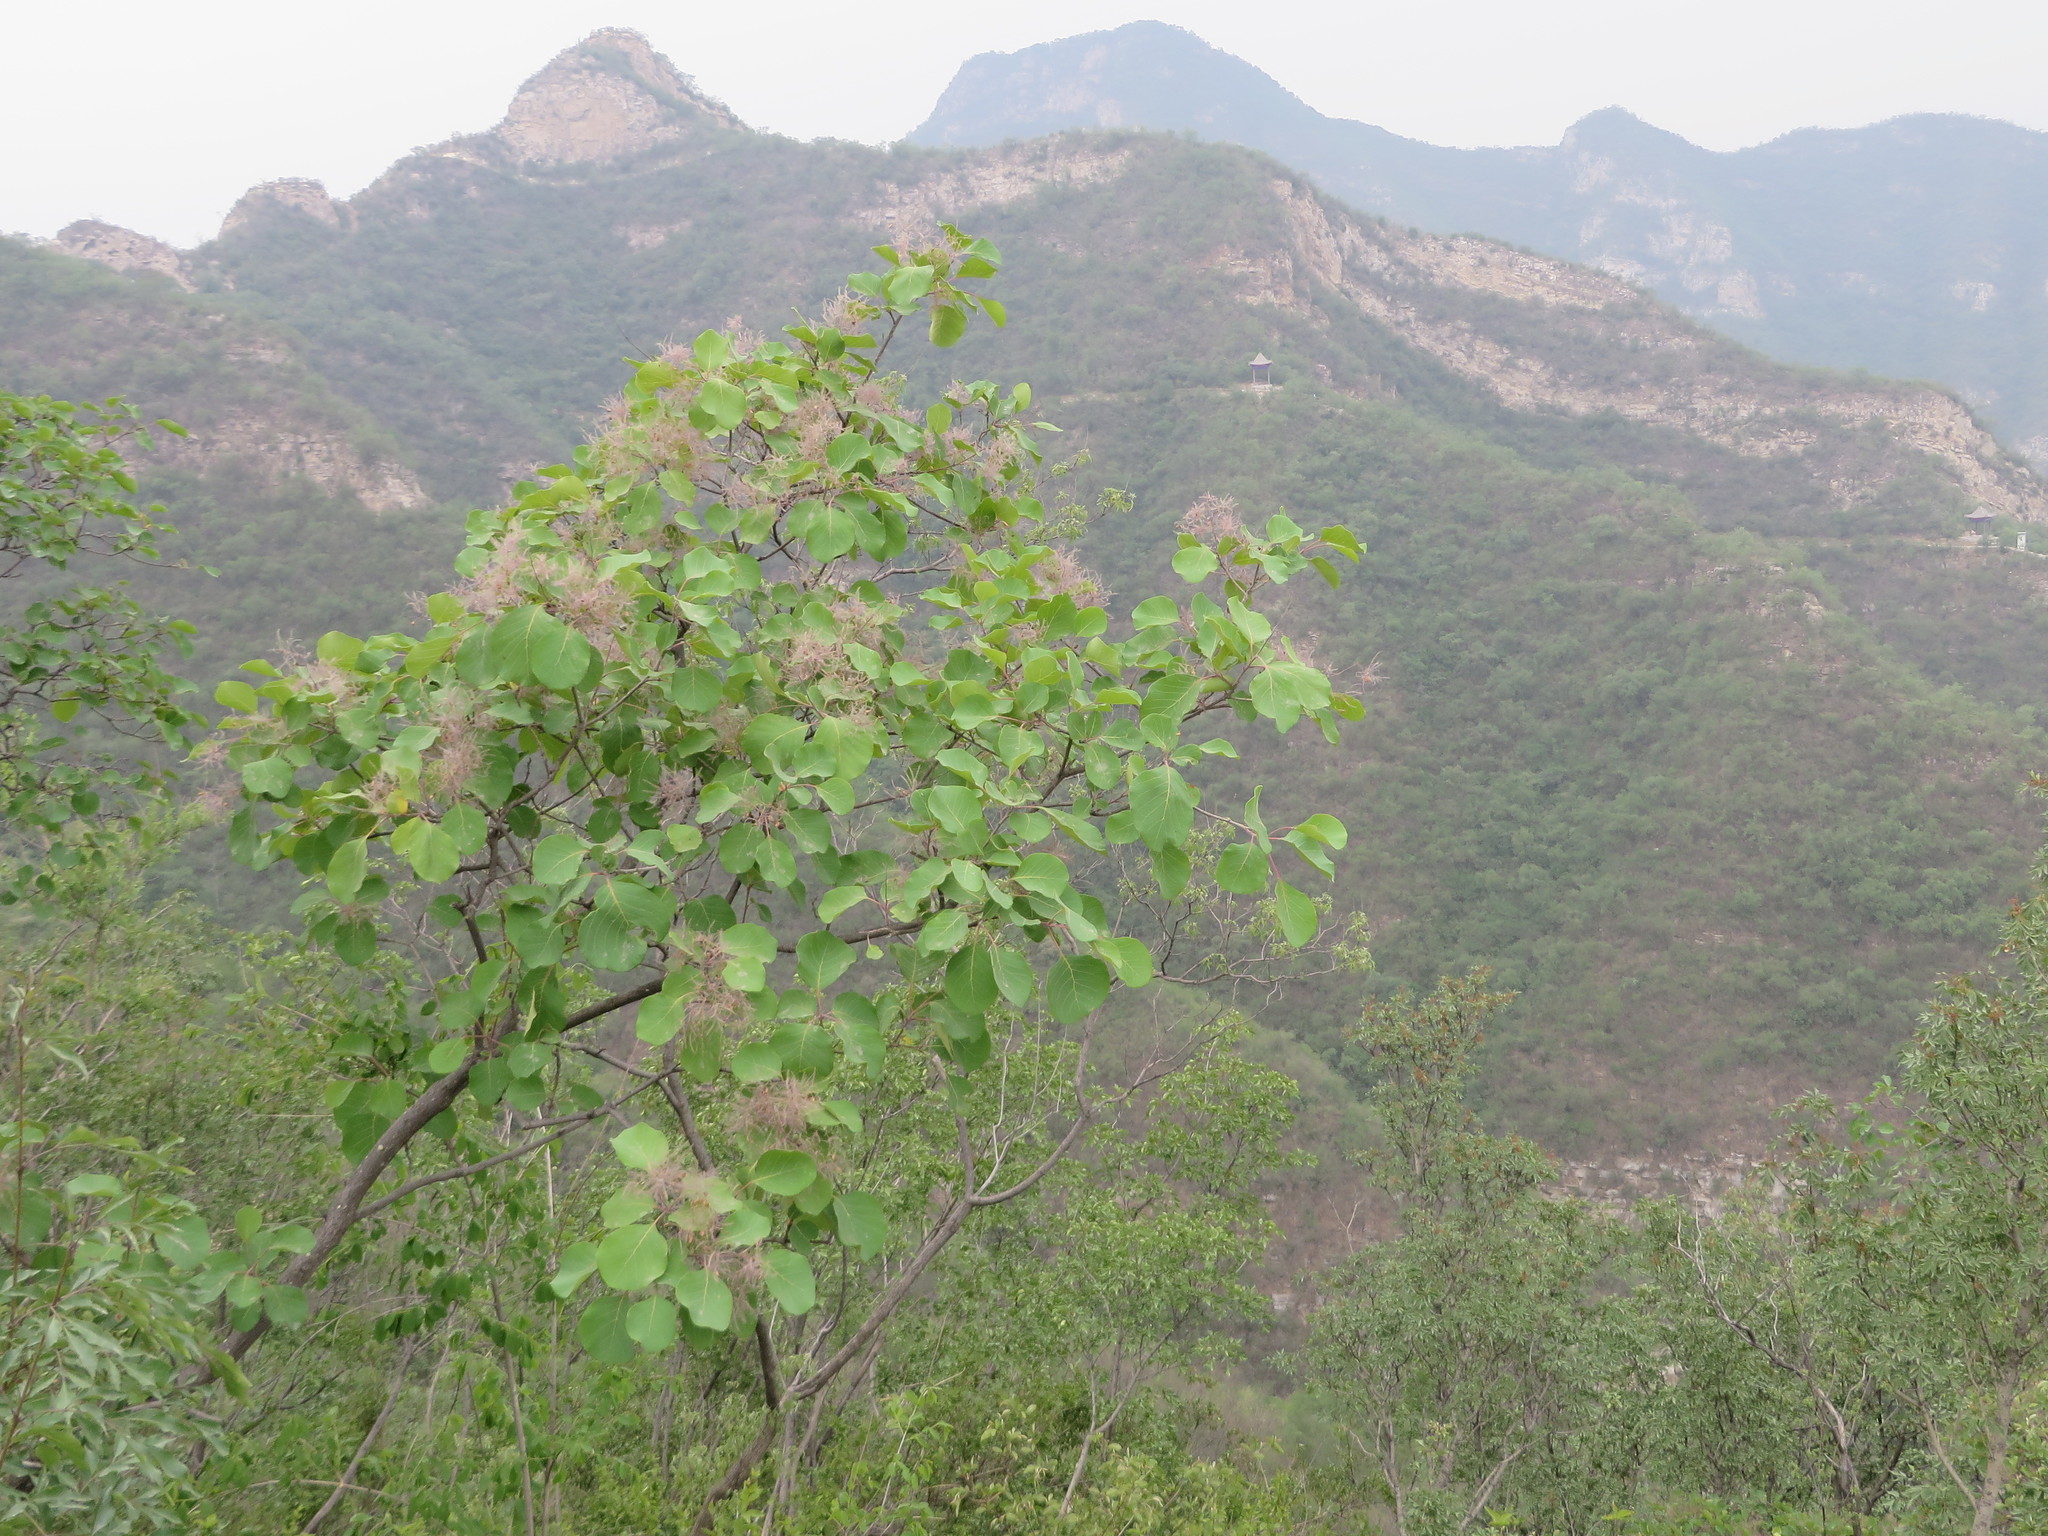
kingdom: Plantae
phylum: Tracheophyta
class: Magnoliopsida
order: Sapindales
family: Anacardiaceae
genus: Cotinus
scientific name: Cotinus coggygria
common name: Smoke-tree
